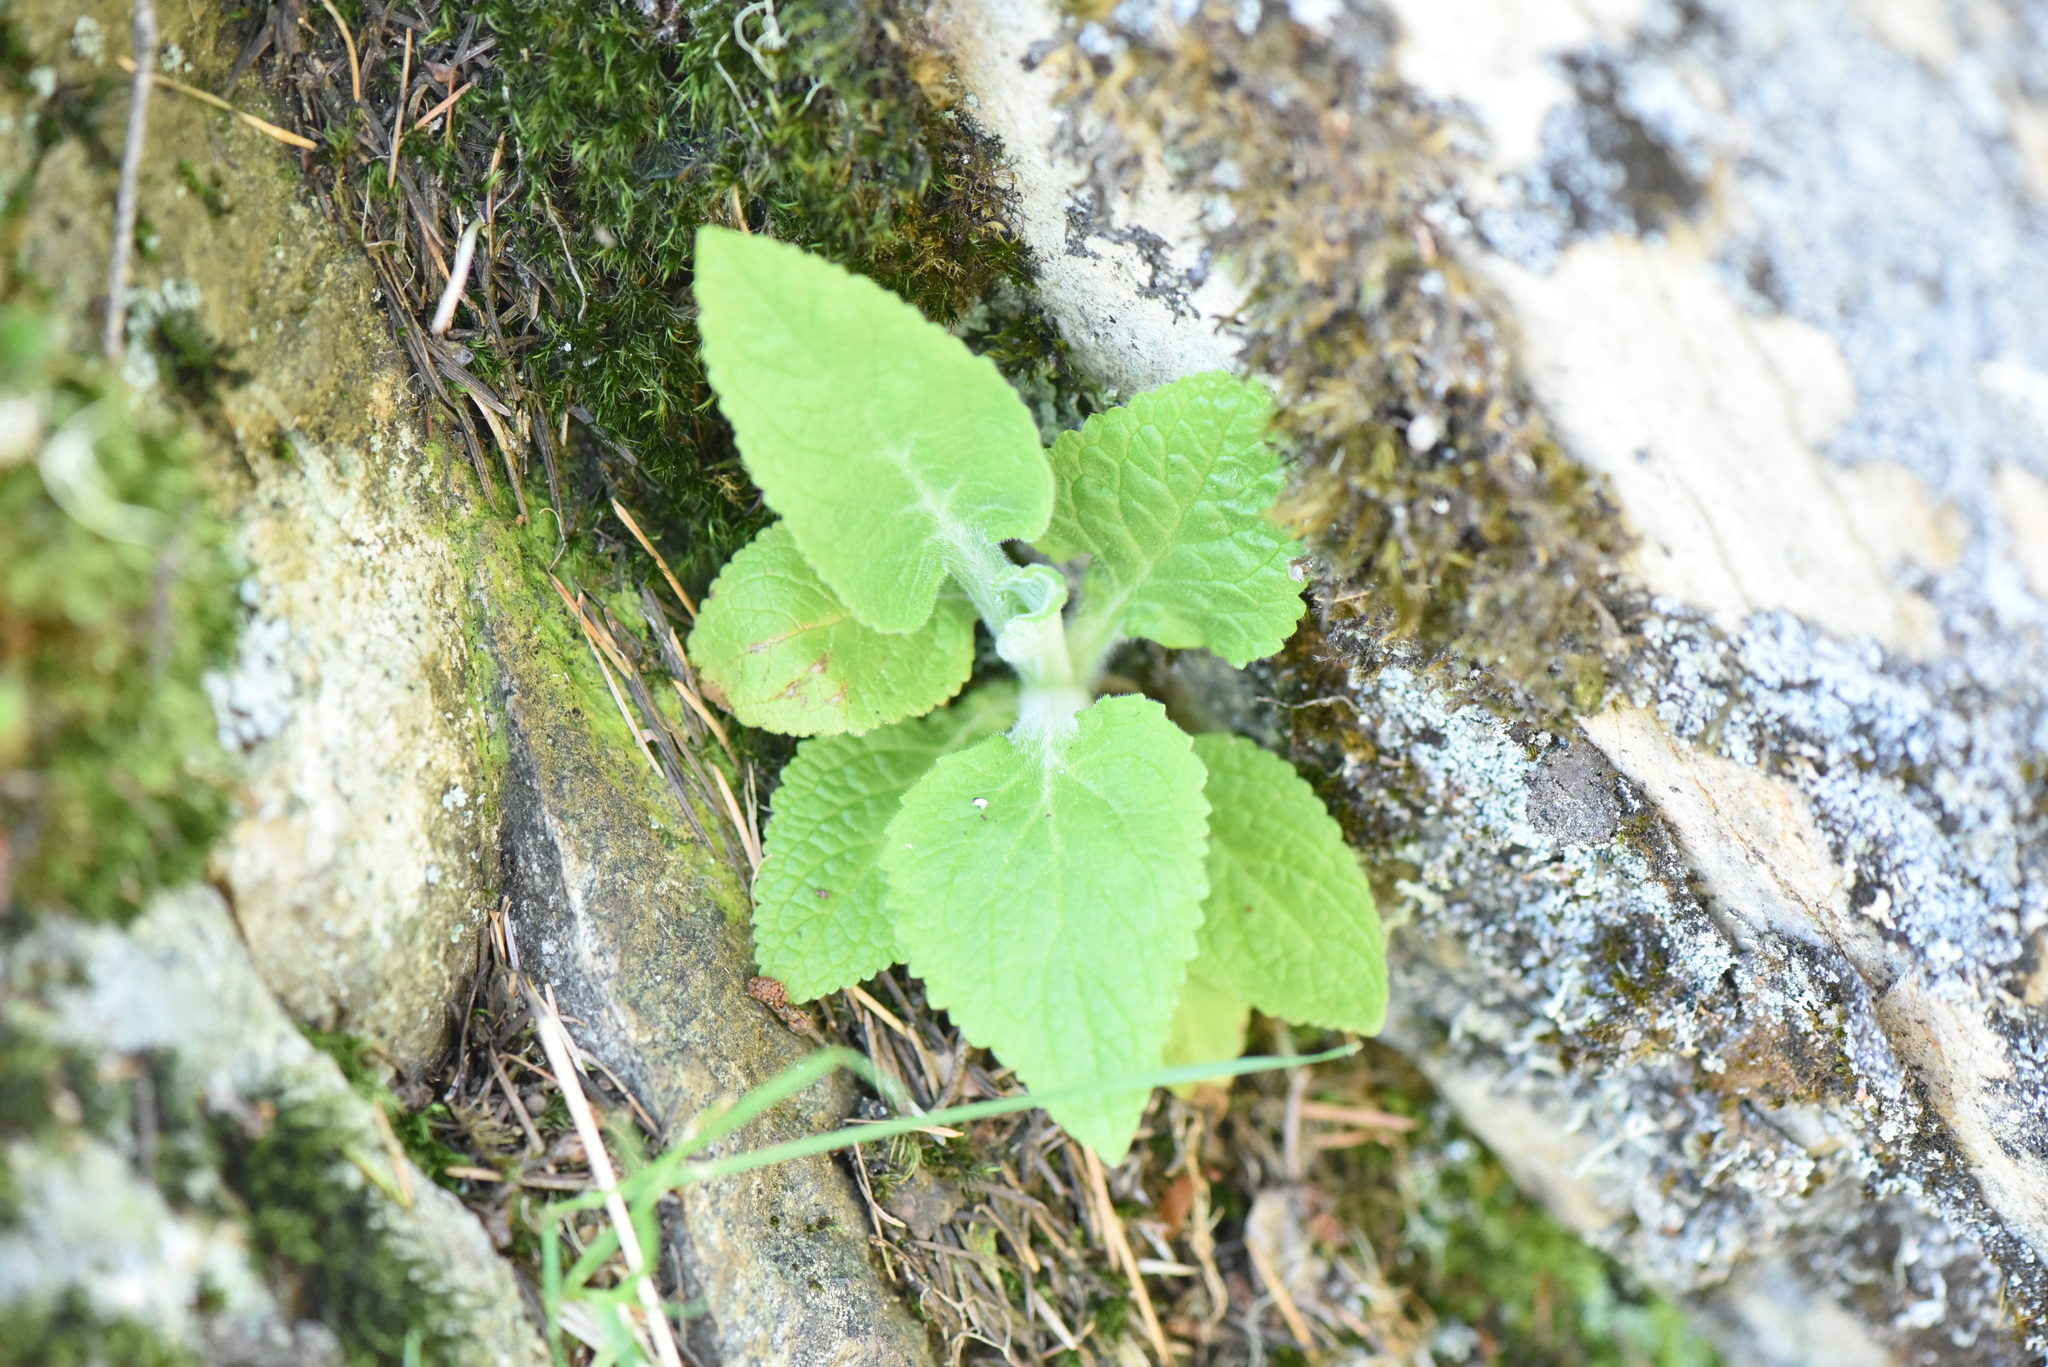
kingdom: Plantae
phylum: Tracheophyta
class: Magnoliopsida
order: Lamiales
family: Plantaginaceae
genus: Digitalis
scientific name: Digitalis purpurea
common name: Foxglove
